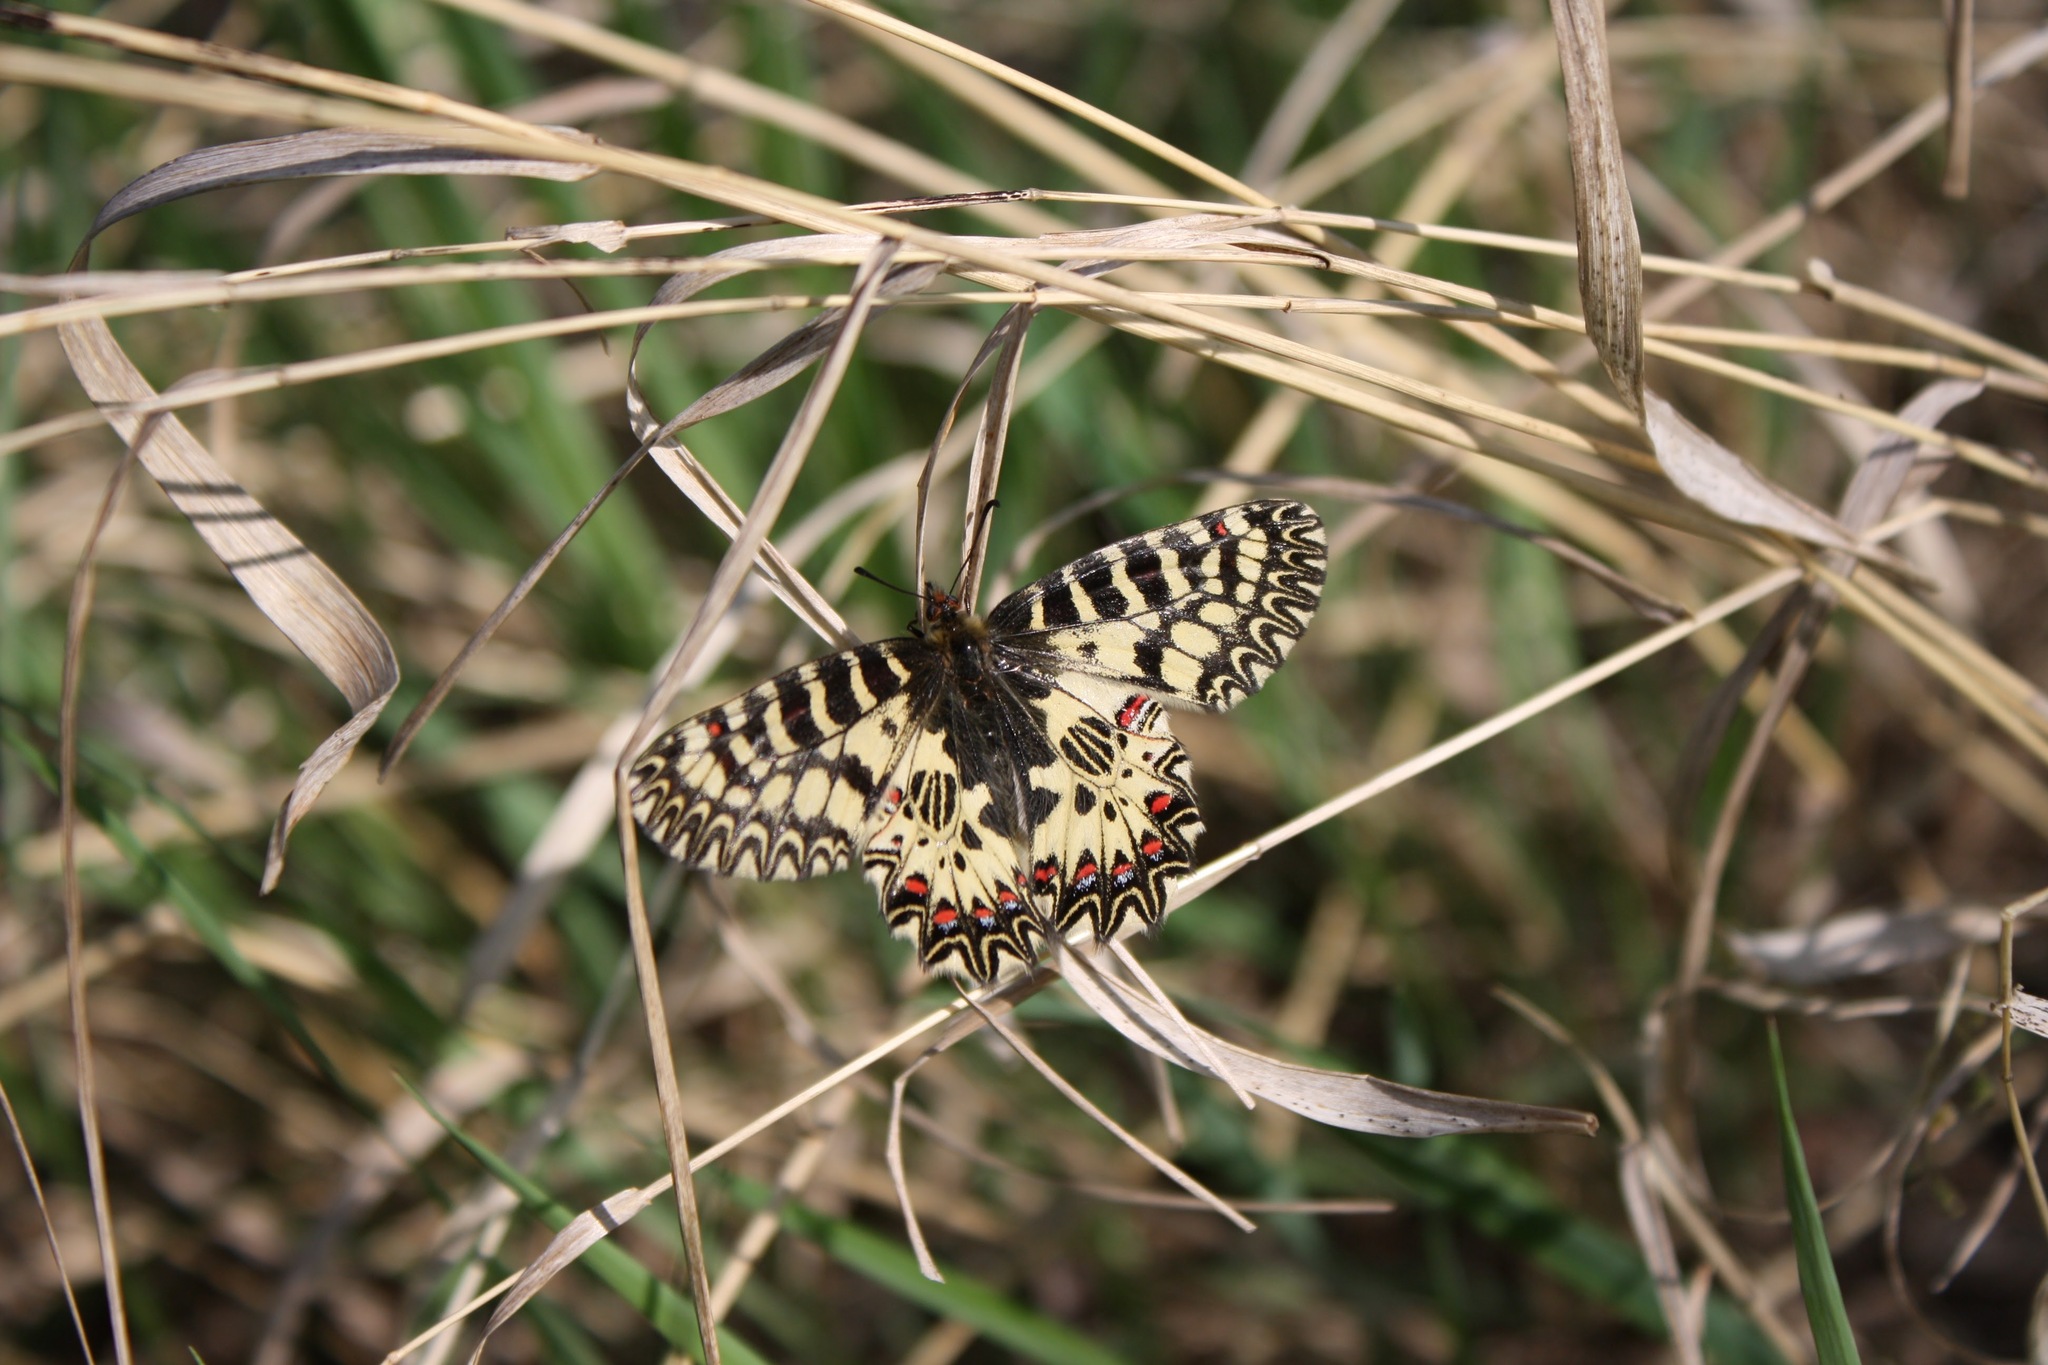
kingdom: Animalia
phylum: Arthropoda
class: Insecta
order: Lepidoptera
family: Papilionidae
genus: Zerynthia
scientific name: Zerynthia polyxena
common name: Southern festoon
